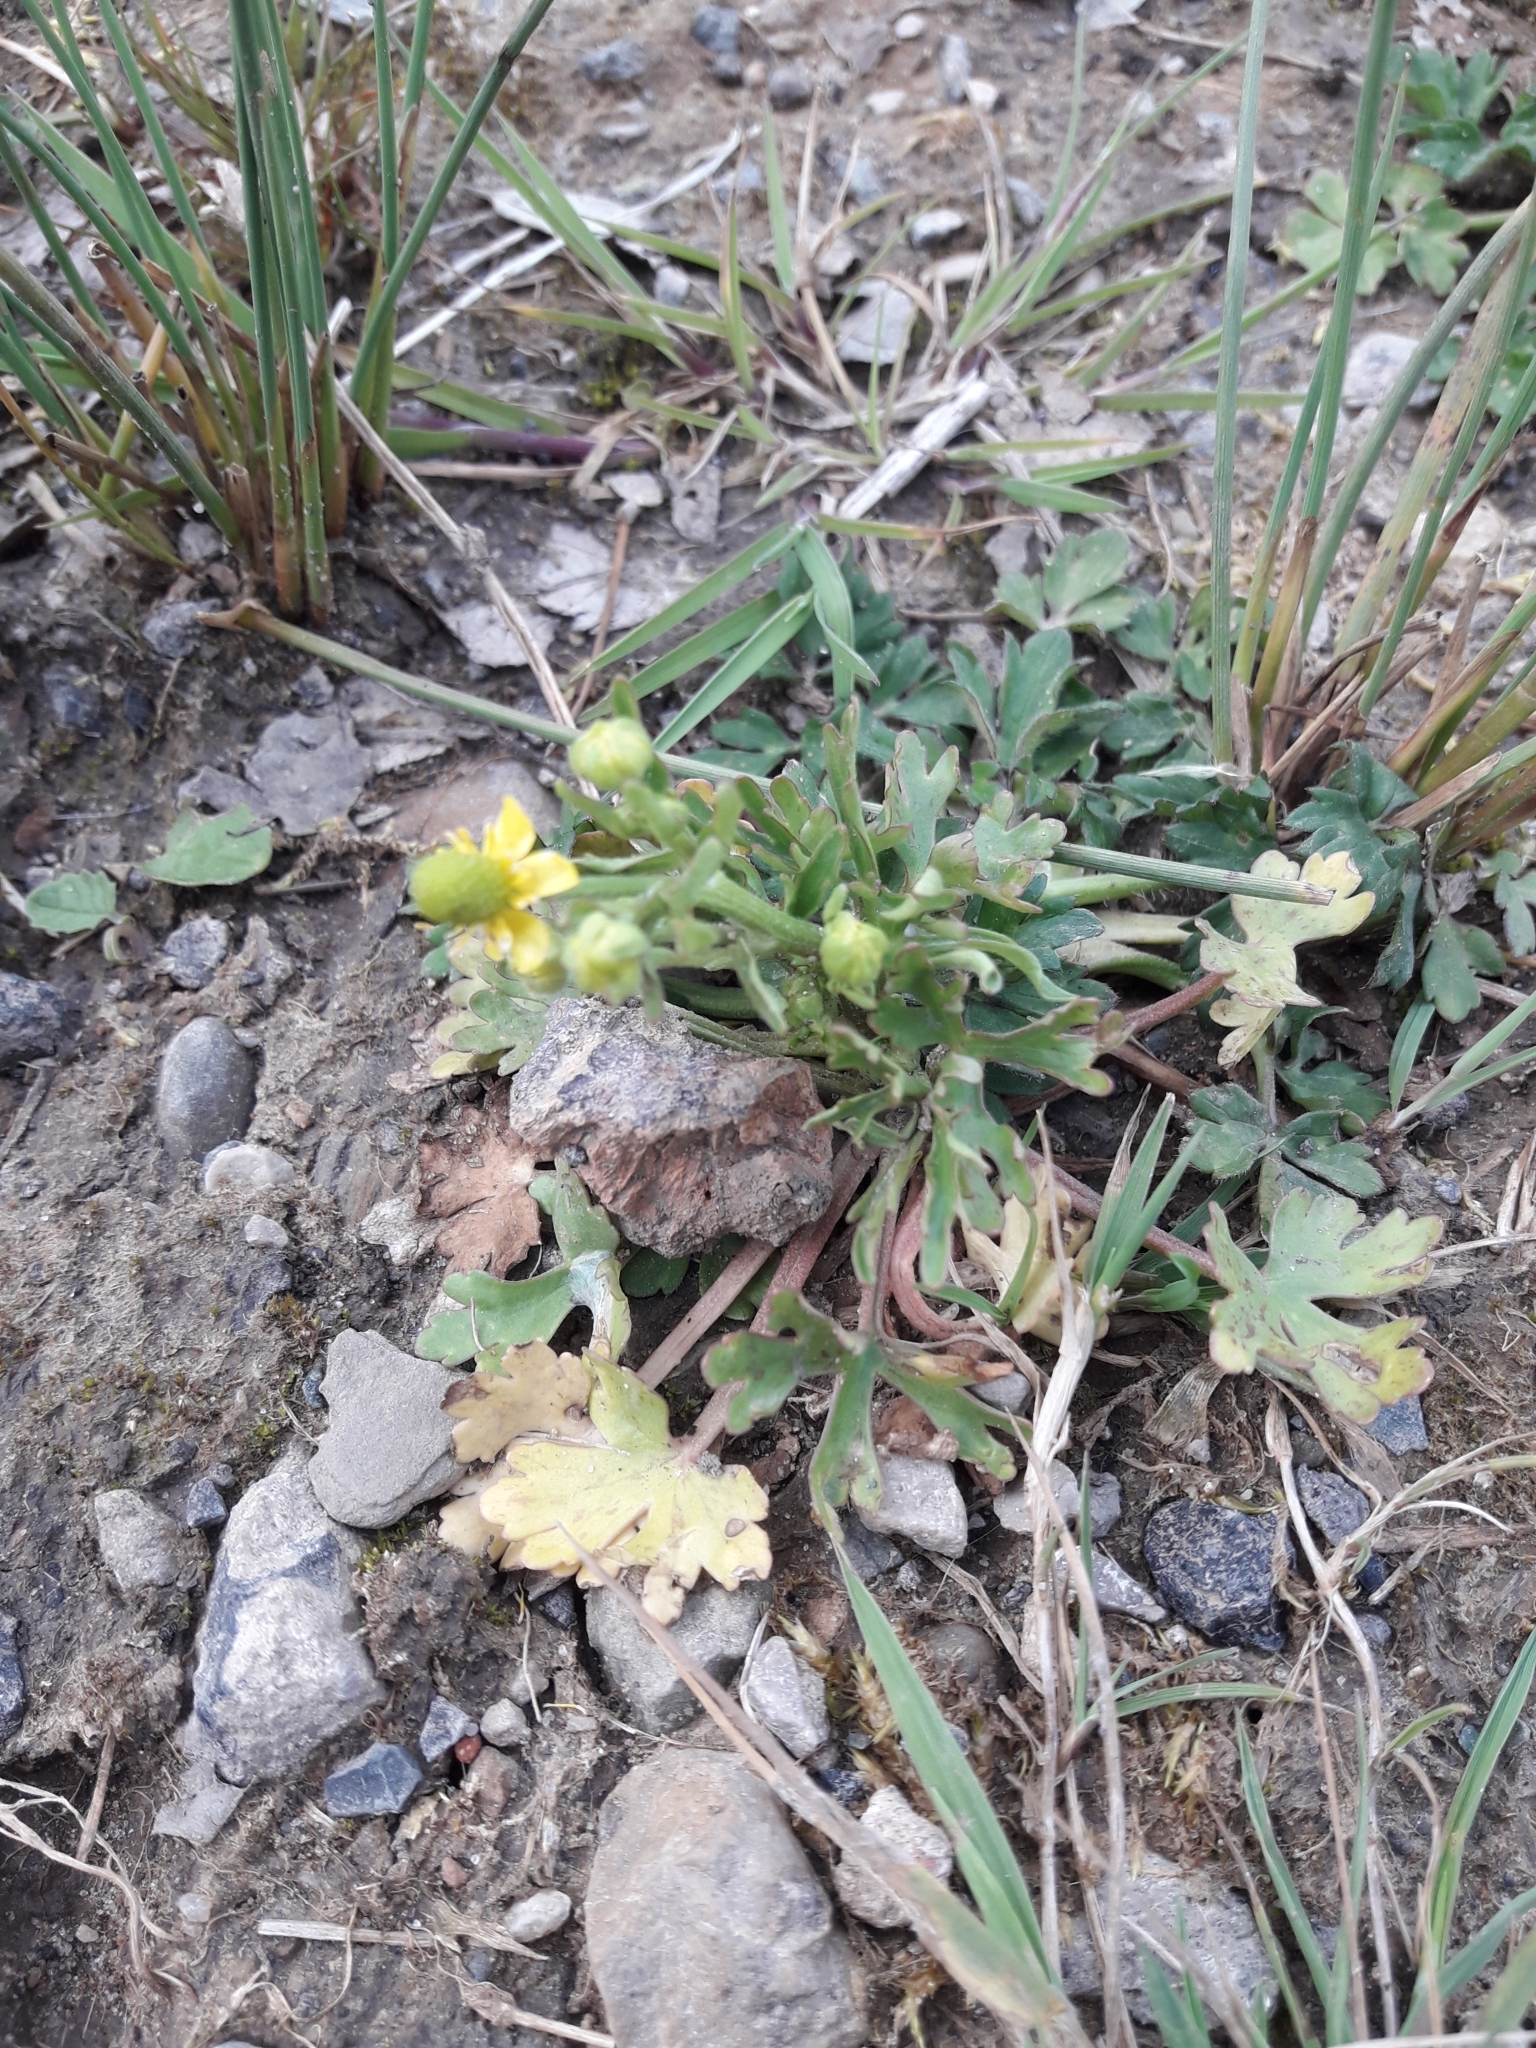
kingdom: Plantae
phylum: Tracheophyta
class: Magnoliopsida
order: Ranunculales
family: Ranunculaceae
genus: Ranunculus
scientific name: Ranunculus sceleratus
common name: Celery-leaved buttercup
